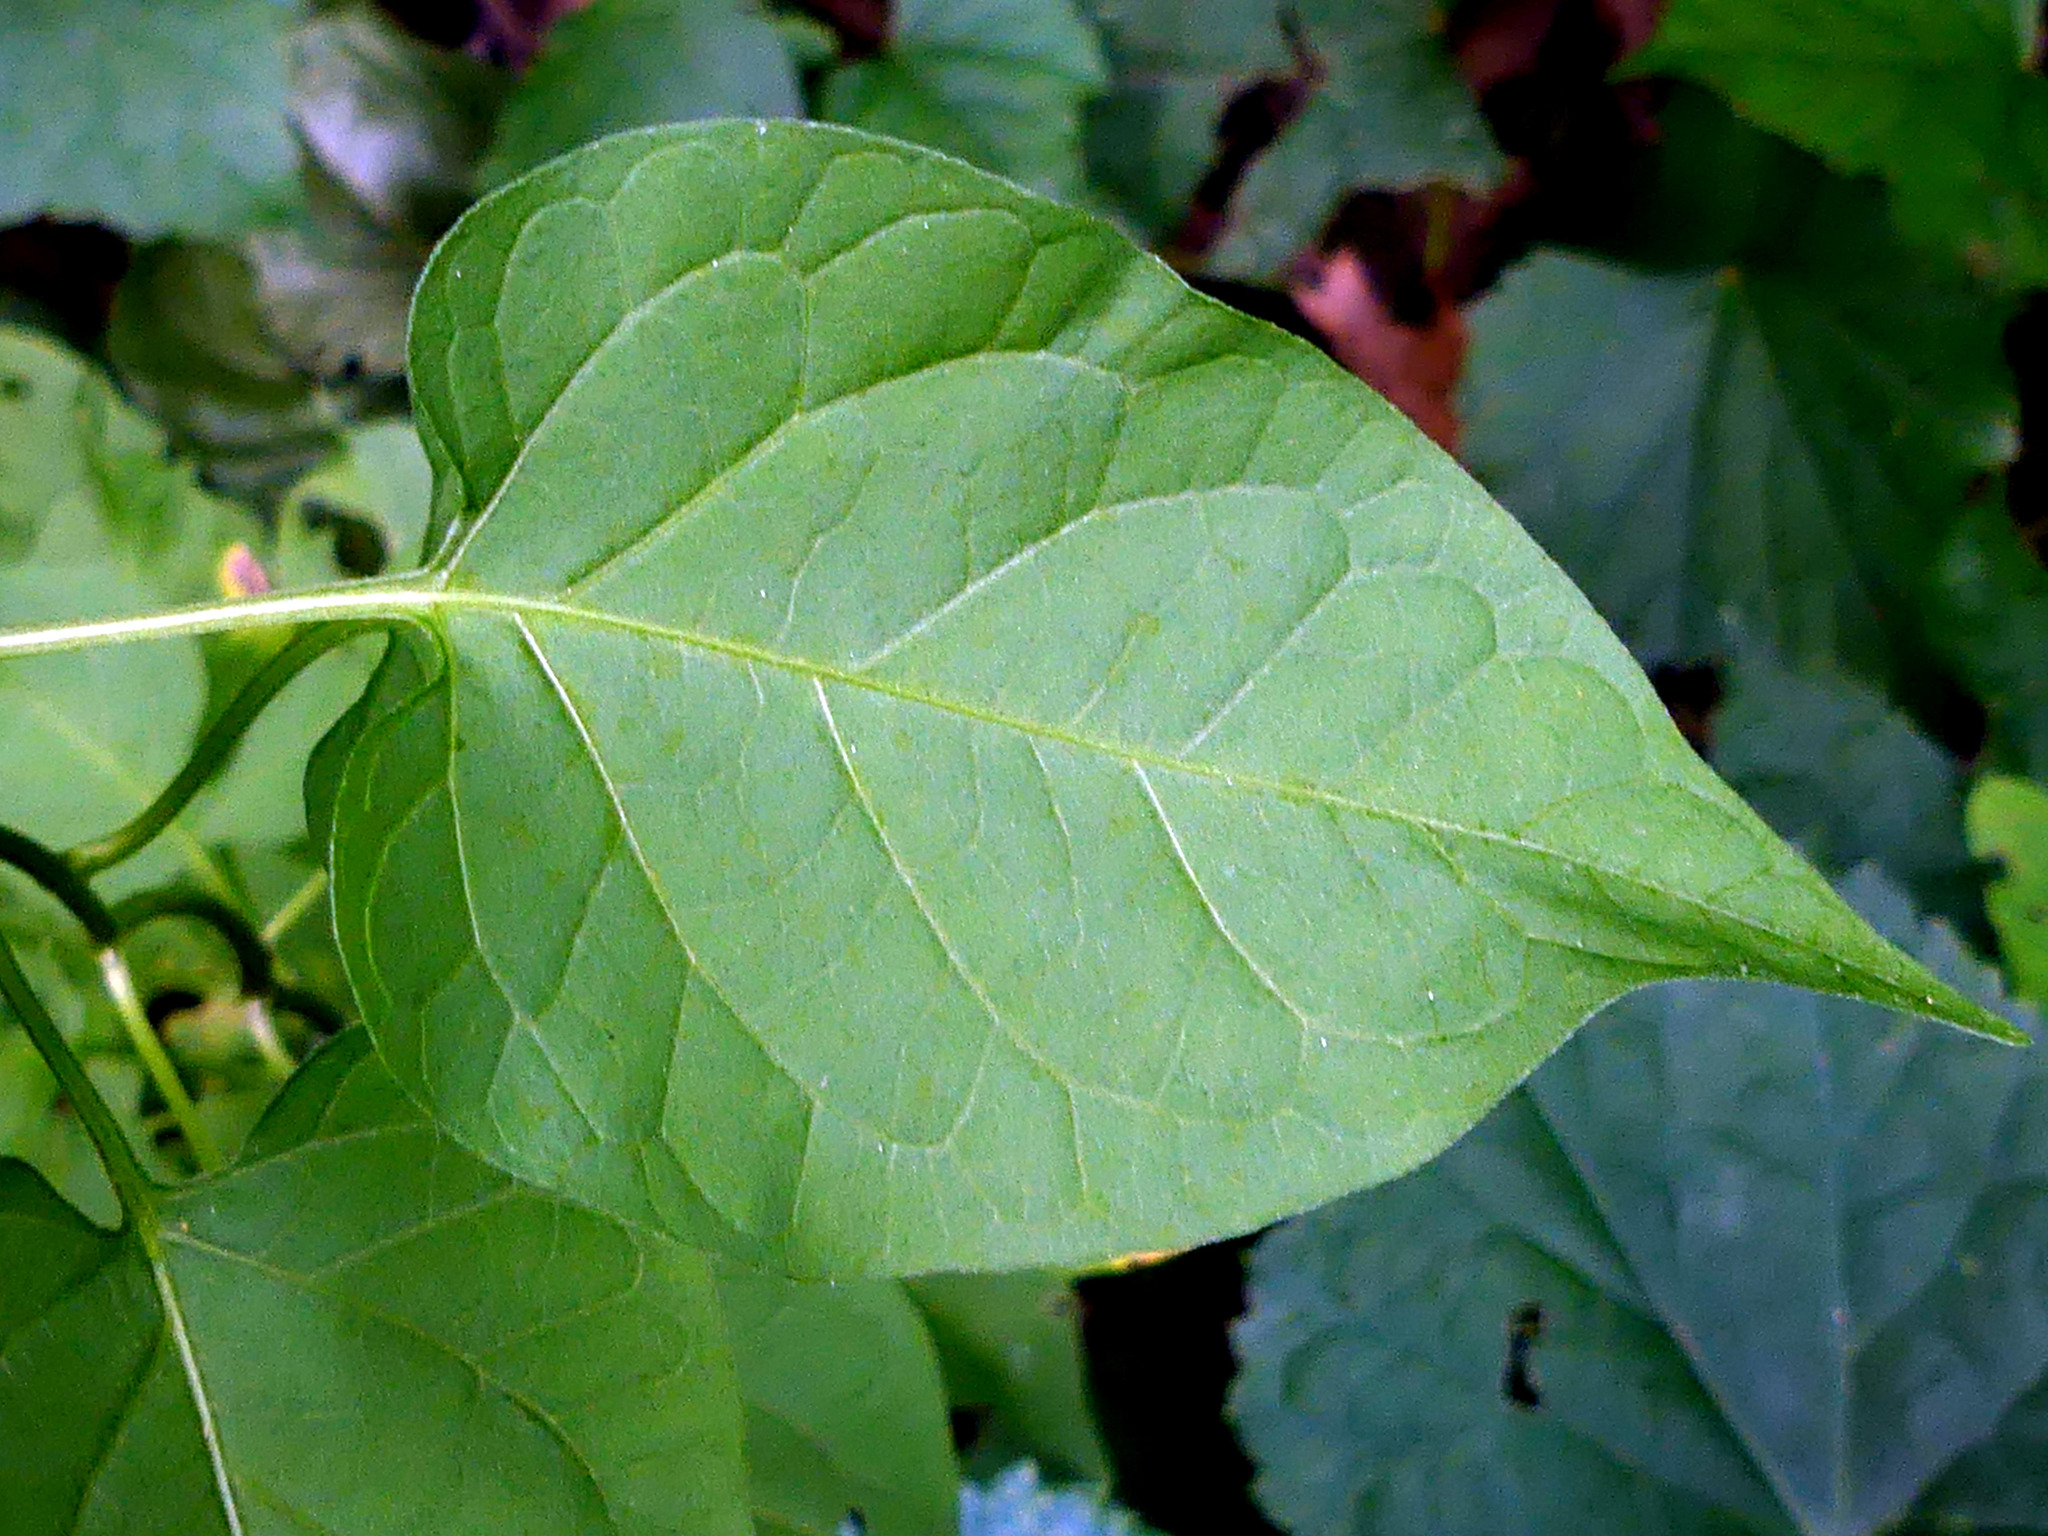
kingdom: Plantae
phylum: Tracheophyta
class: Magnoliopsida
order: Solanales
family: Solanaceae
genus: Solanum
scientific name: Solanum dulcamara
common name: Climbing nightshade
